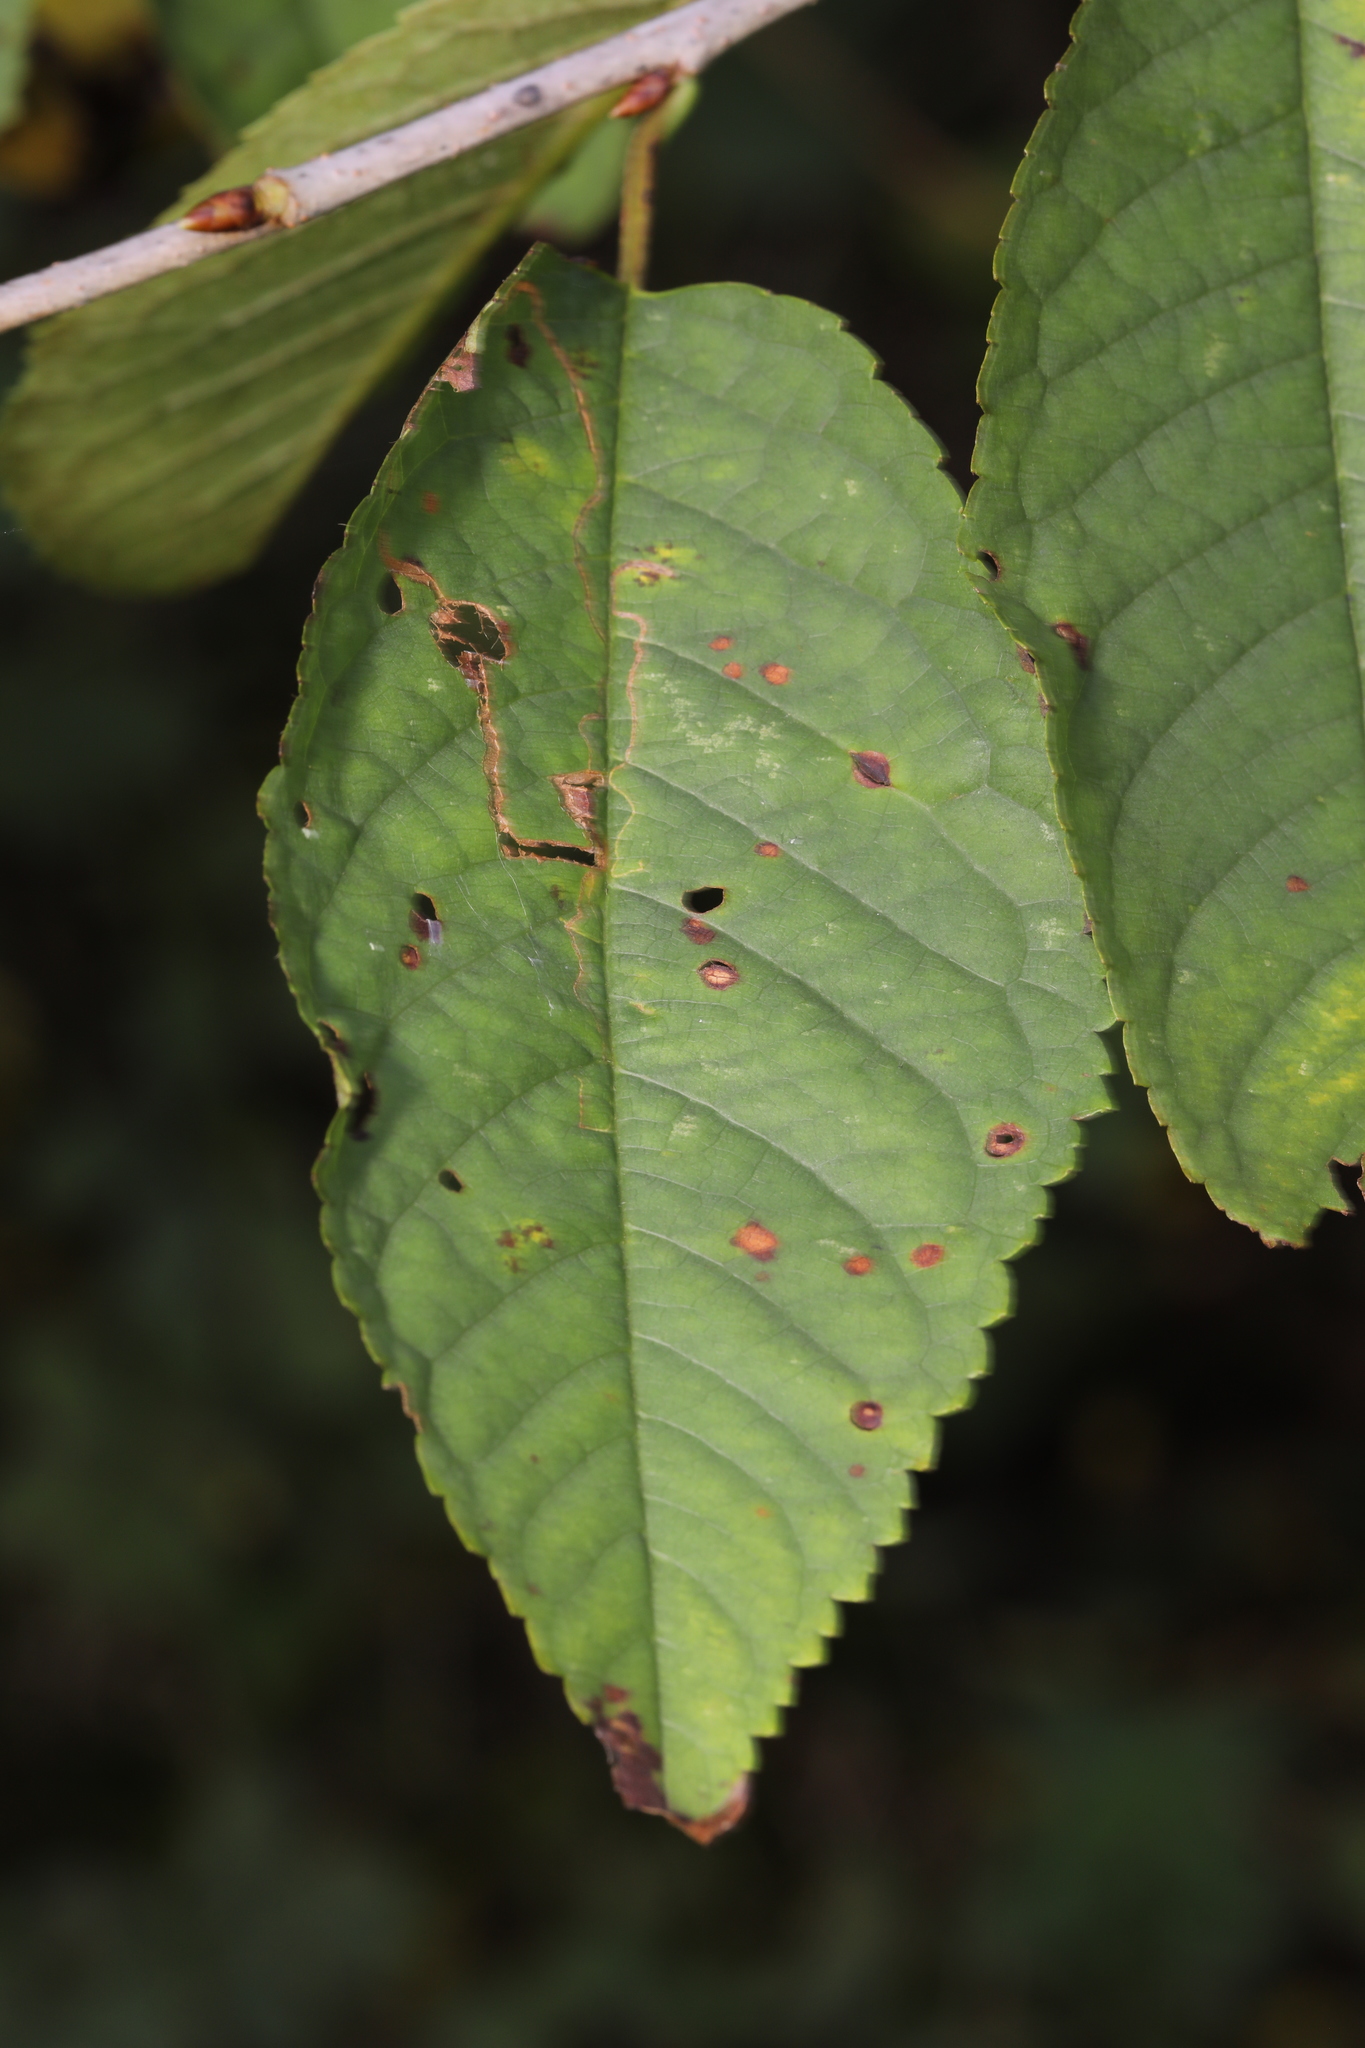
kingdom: Animalia
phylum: Arthropoda
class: Insecta
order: Lepidoptera
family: Lyonetiidae
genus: Lyonetia
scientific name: Lyonetia clerkella
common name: Apple leaf miner
